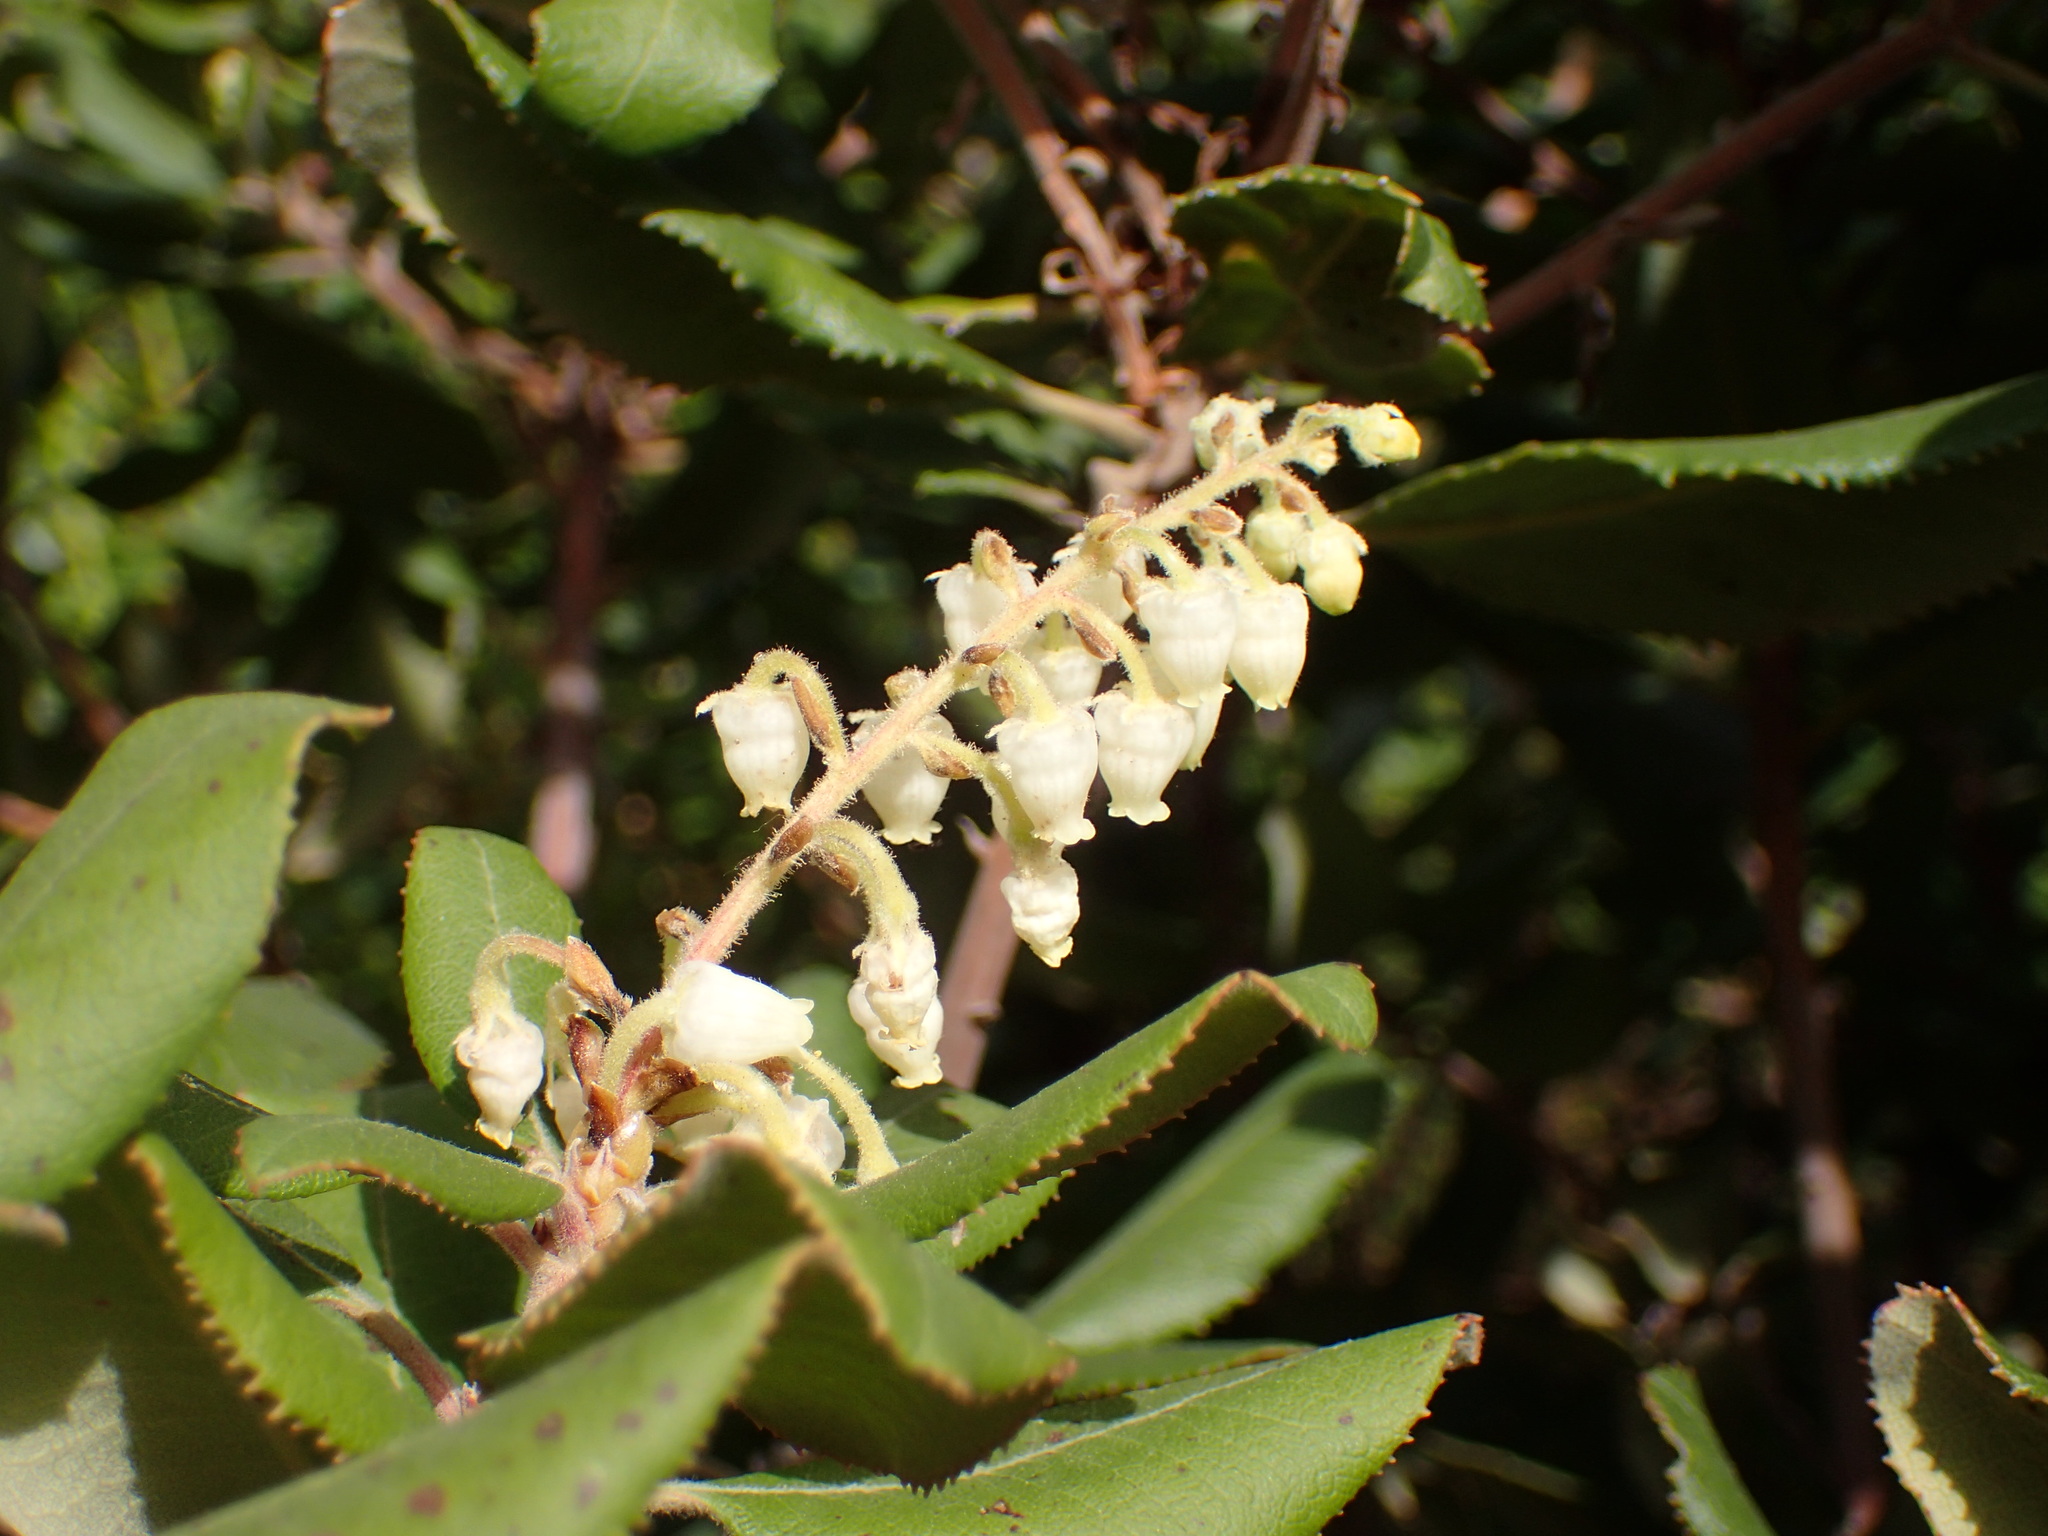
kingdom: Plantae
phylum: Tracheophyta
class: Magnoliopsida
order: Ericales
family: Ericaceae
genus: Comarostaphylis
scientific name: Comarostaphylis diversifolia
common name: Summer-holly
